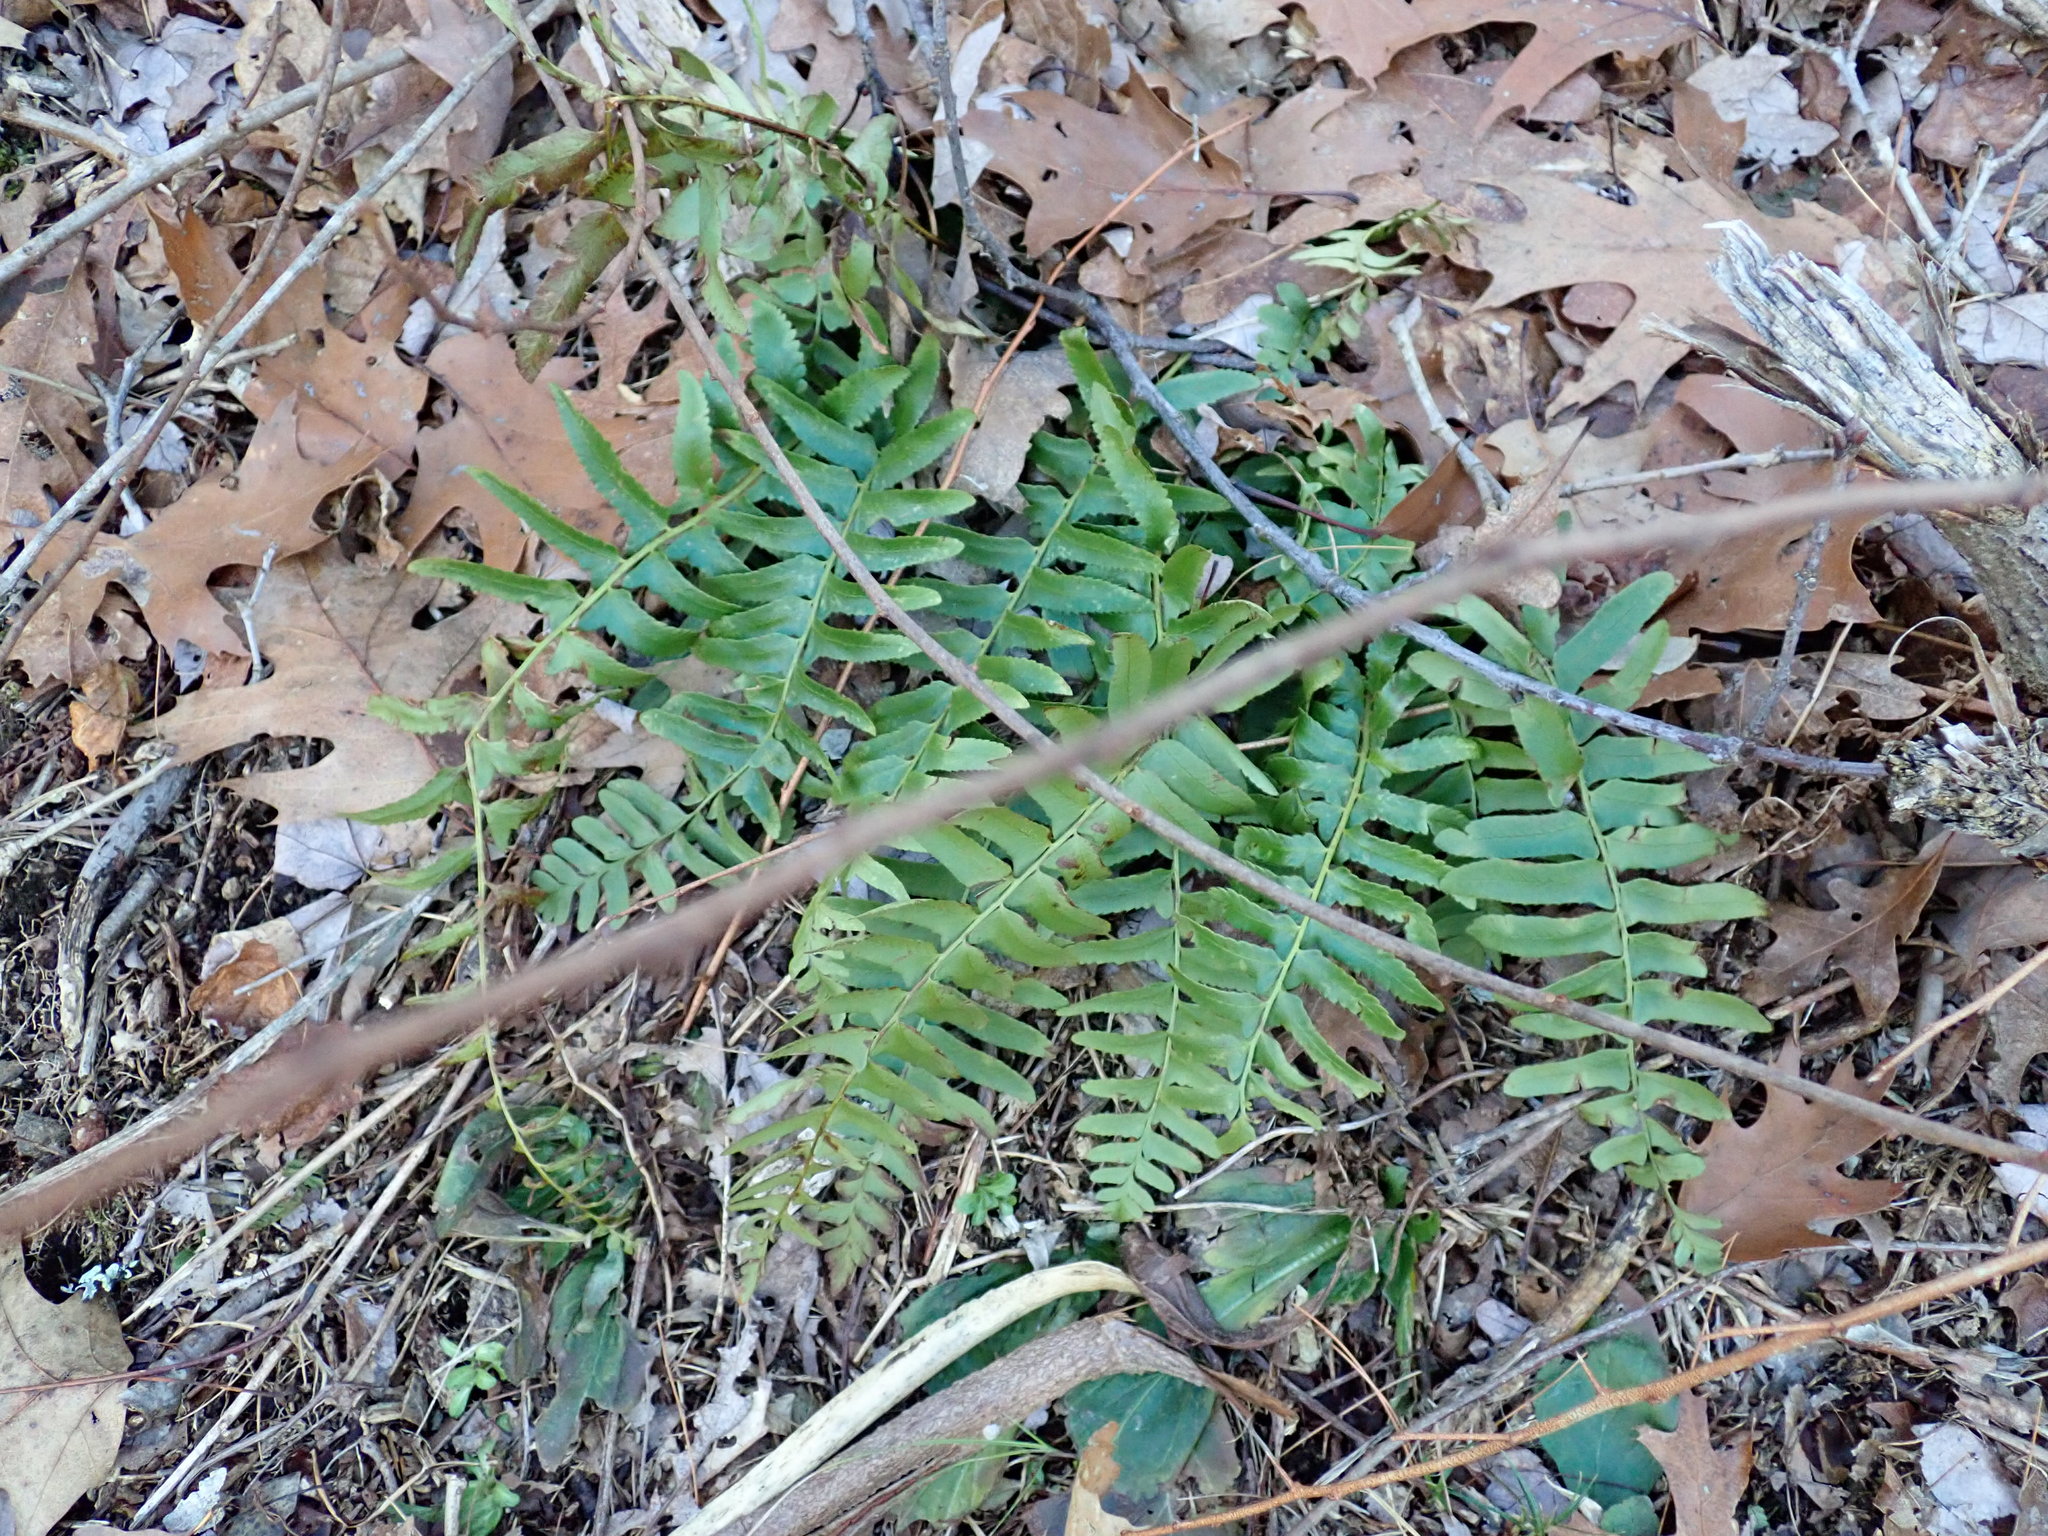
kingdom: Plantae
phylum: Tracheophyta
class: Polypodiopsida
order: Polypodiales
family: Dryopteridaceae
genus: Polystichum
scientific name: Polystichum acrostichoides
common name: Christmas fern
